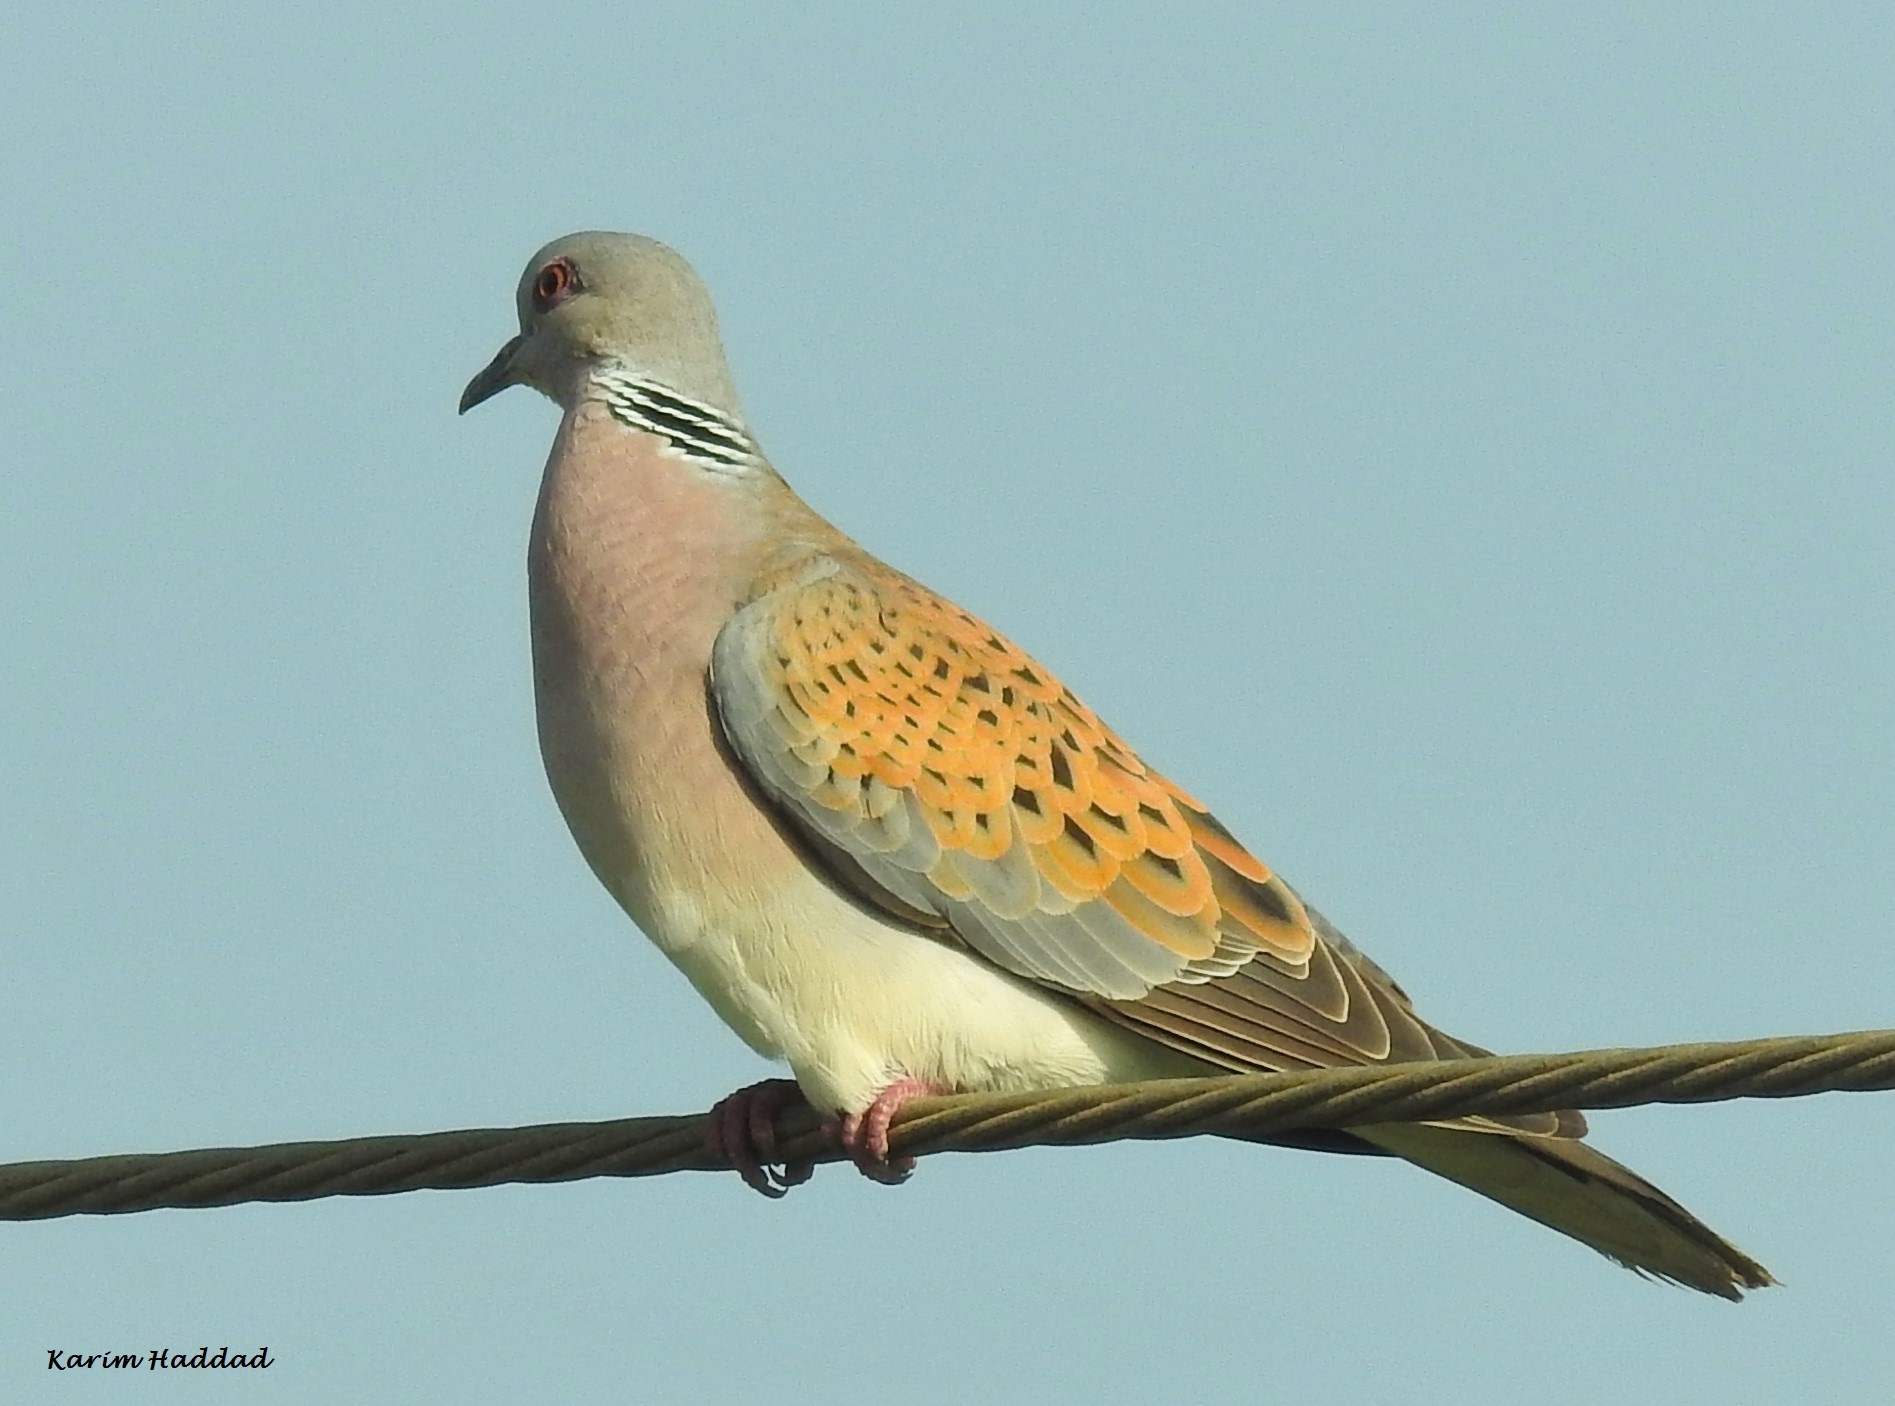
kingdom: Animalia
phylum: Chordata
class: Aves
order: Columbiformes
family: Columbidae
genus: Streptopelia
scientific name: Streptopelia turtur
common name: European turtle dove
